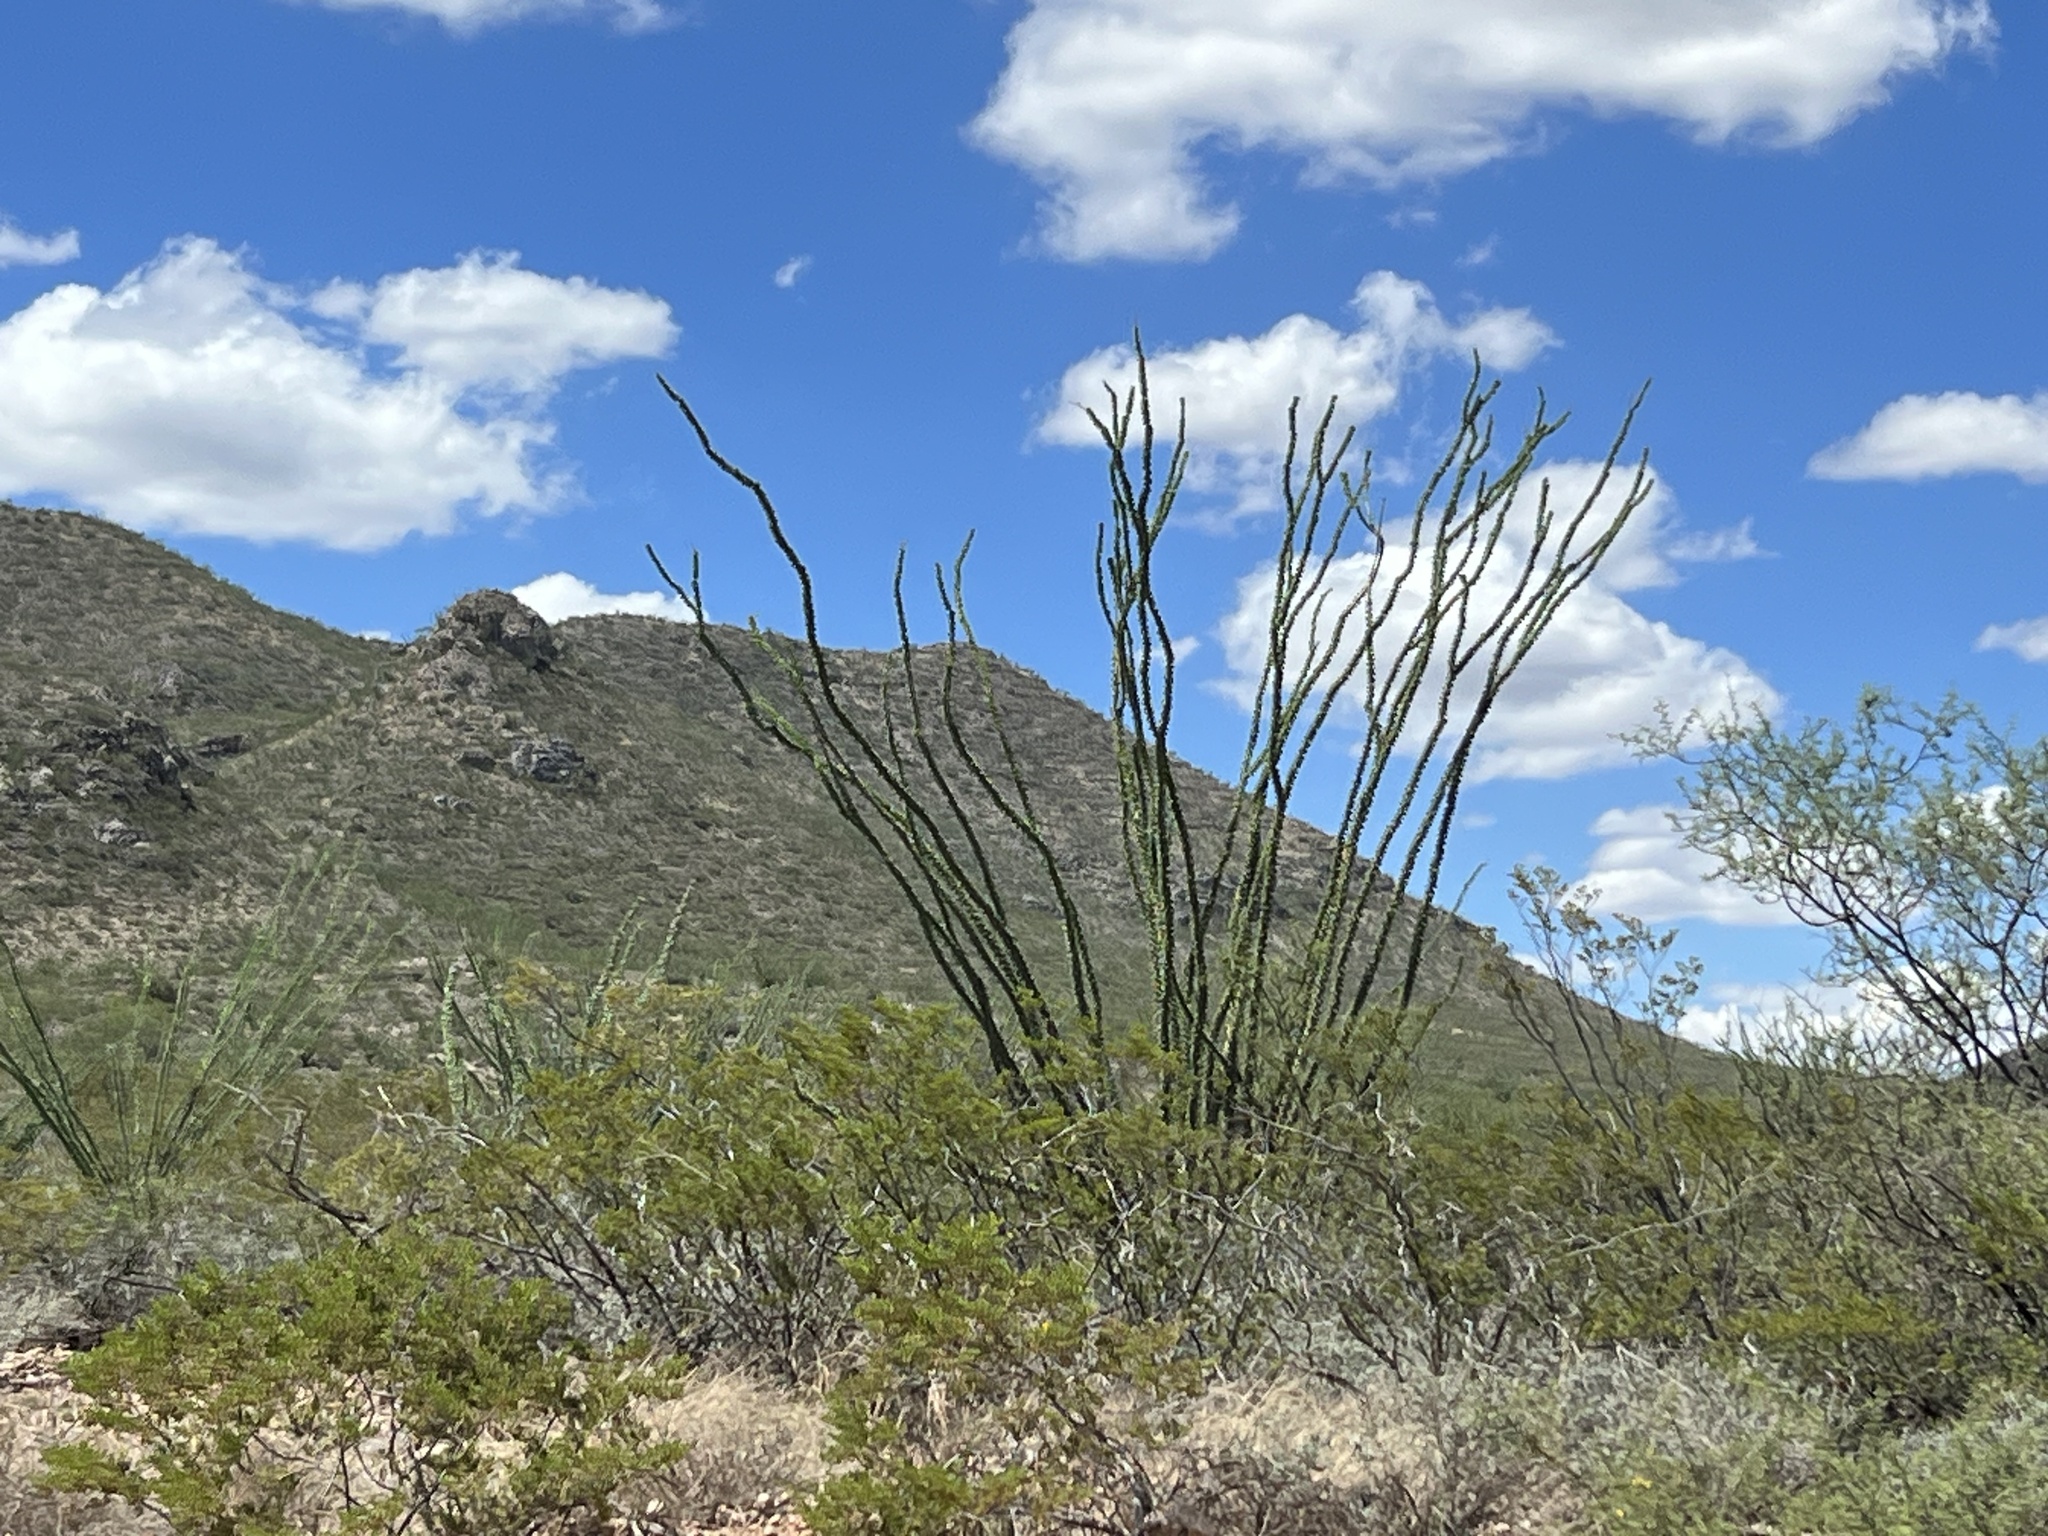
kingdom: Plantae
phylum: Tracheophyta
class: Magnoliopsida
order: Ericales
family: Fouquieriaceae
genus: Fouquieria
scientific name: Fouquieria splendens
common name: Vine-cactus
